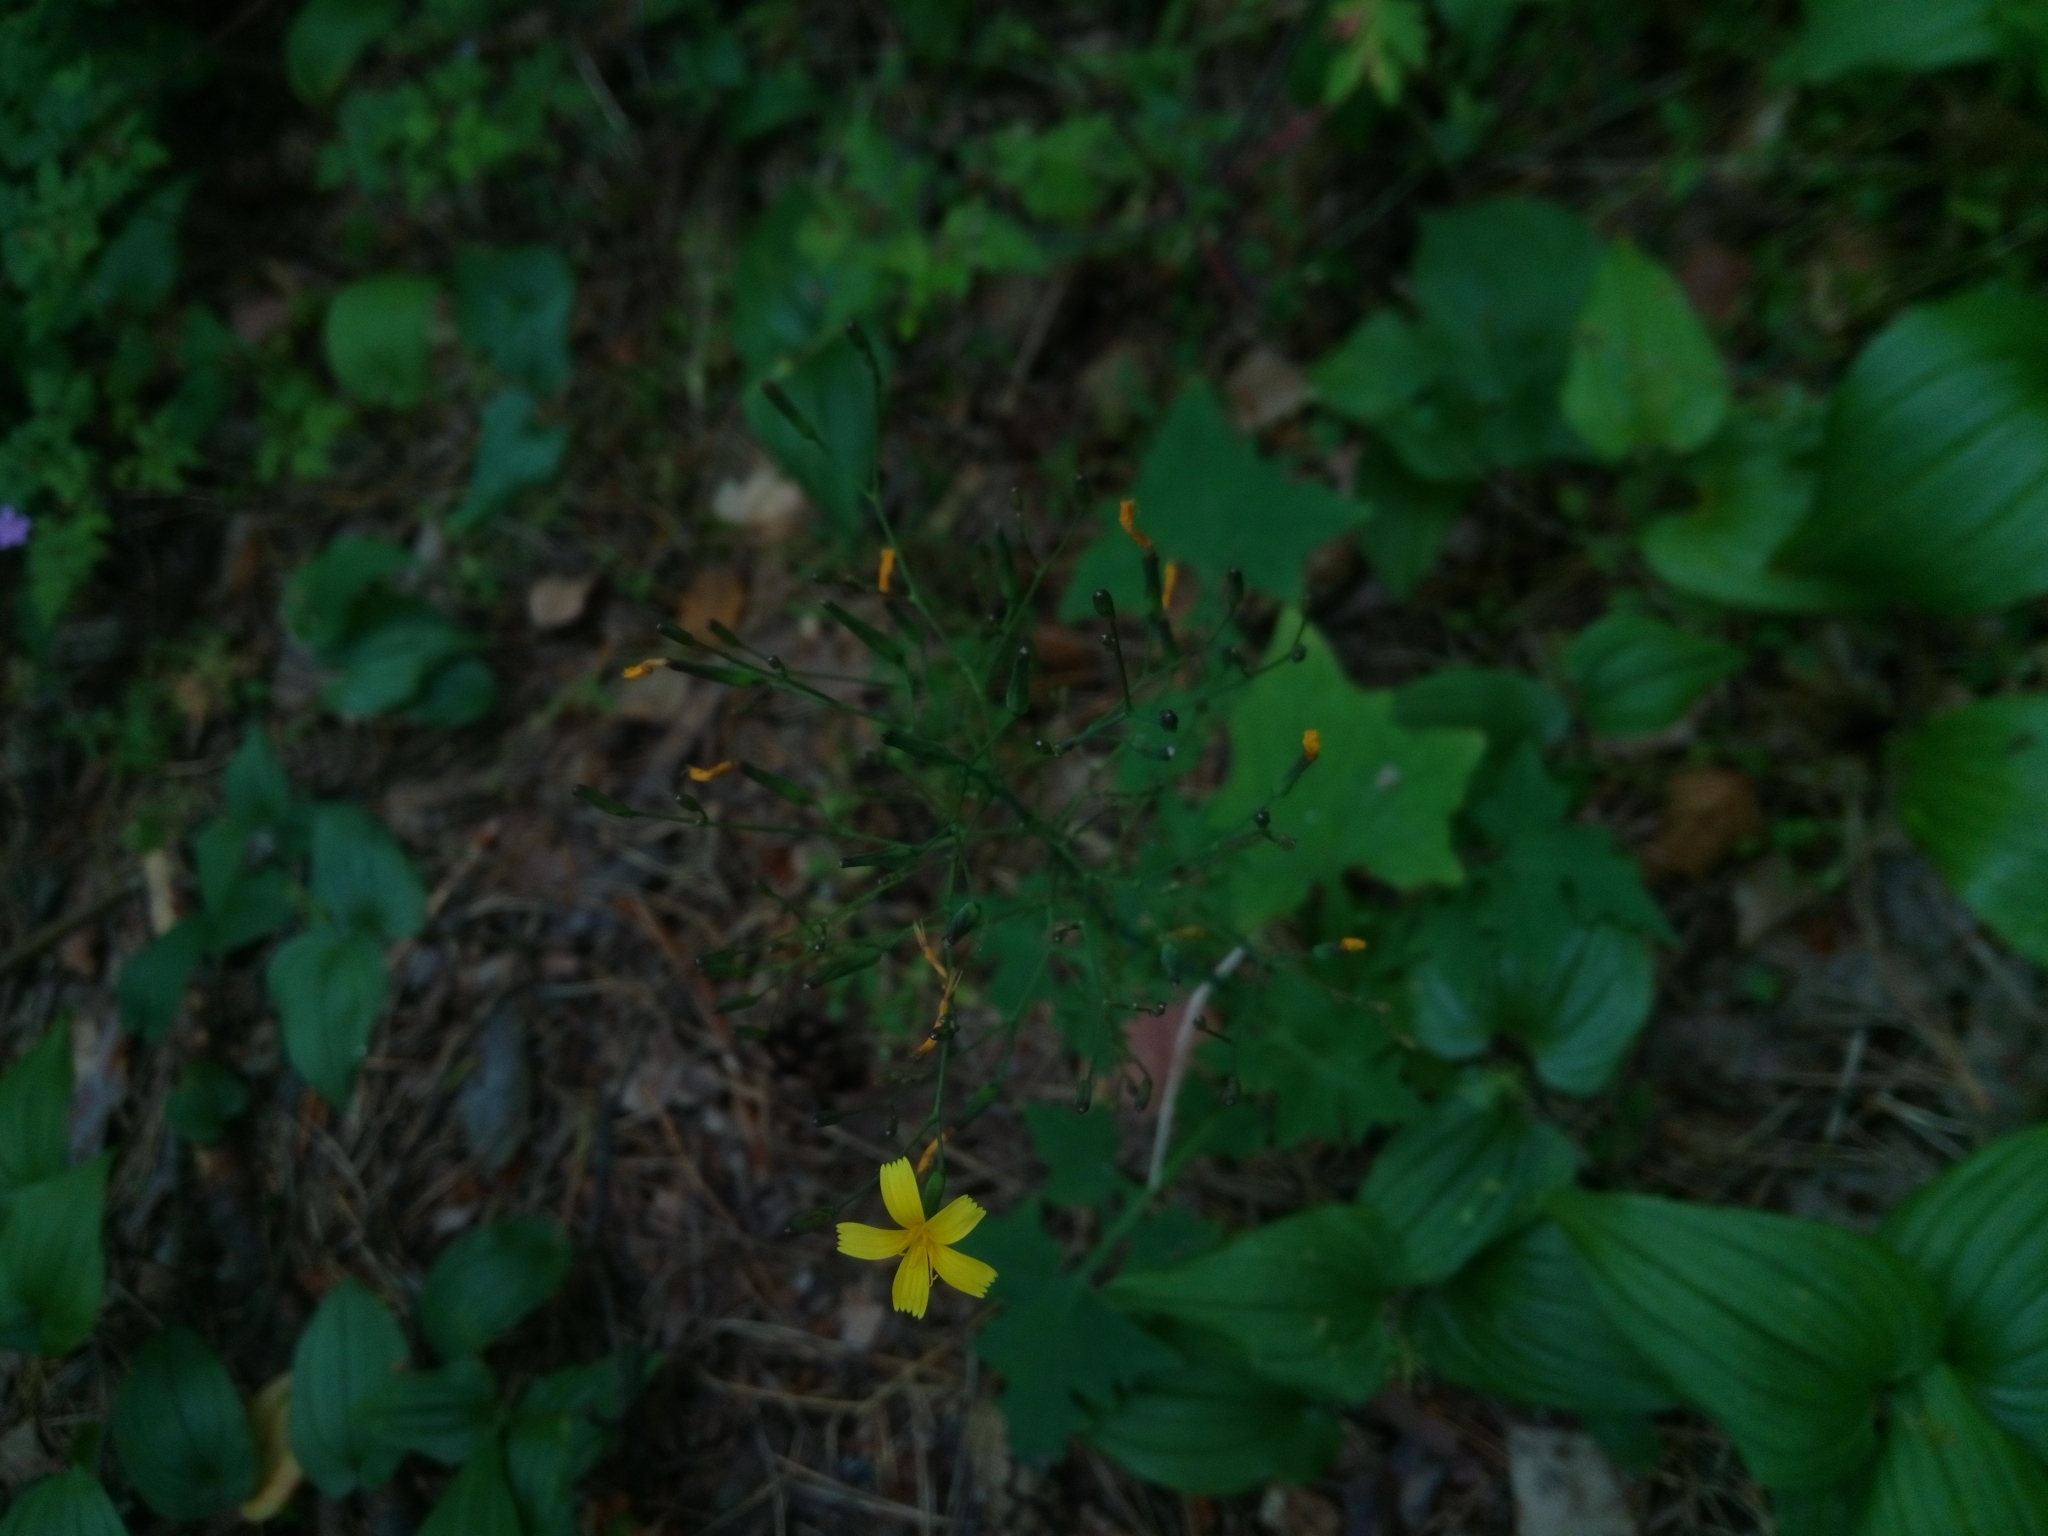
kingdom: Plantae
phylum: Tracheophyta
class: Magnoliopsida
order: Asterales
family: Asteraceae
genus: Mycelis
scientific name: Mycelis muralis
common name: Wall lettuce
